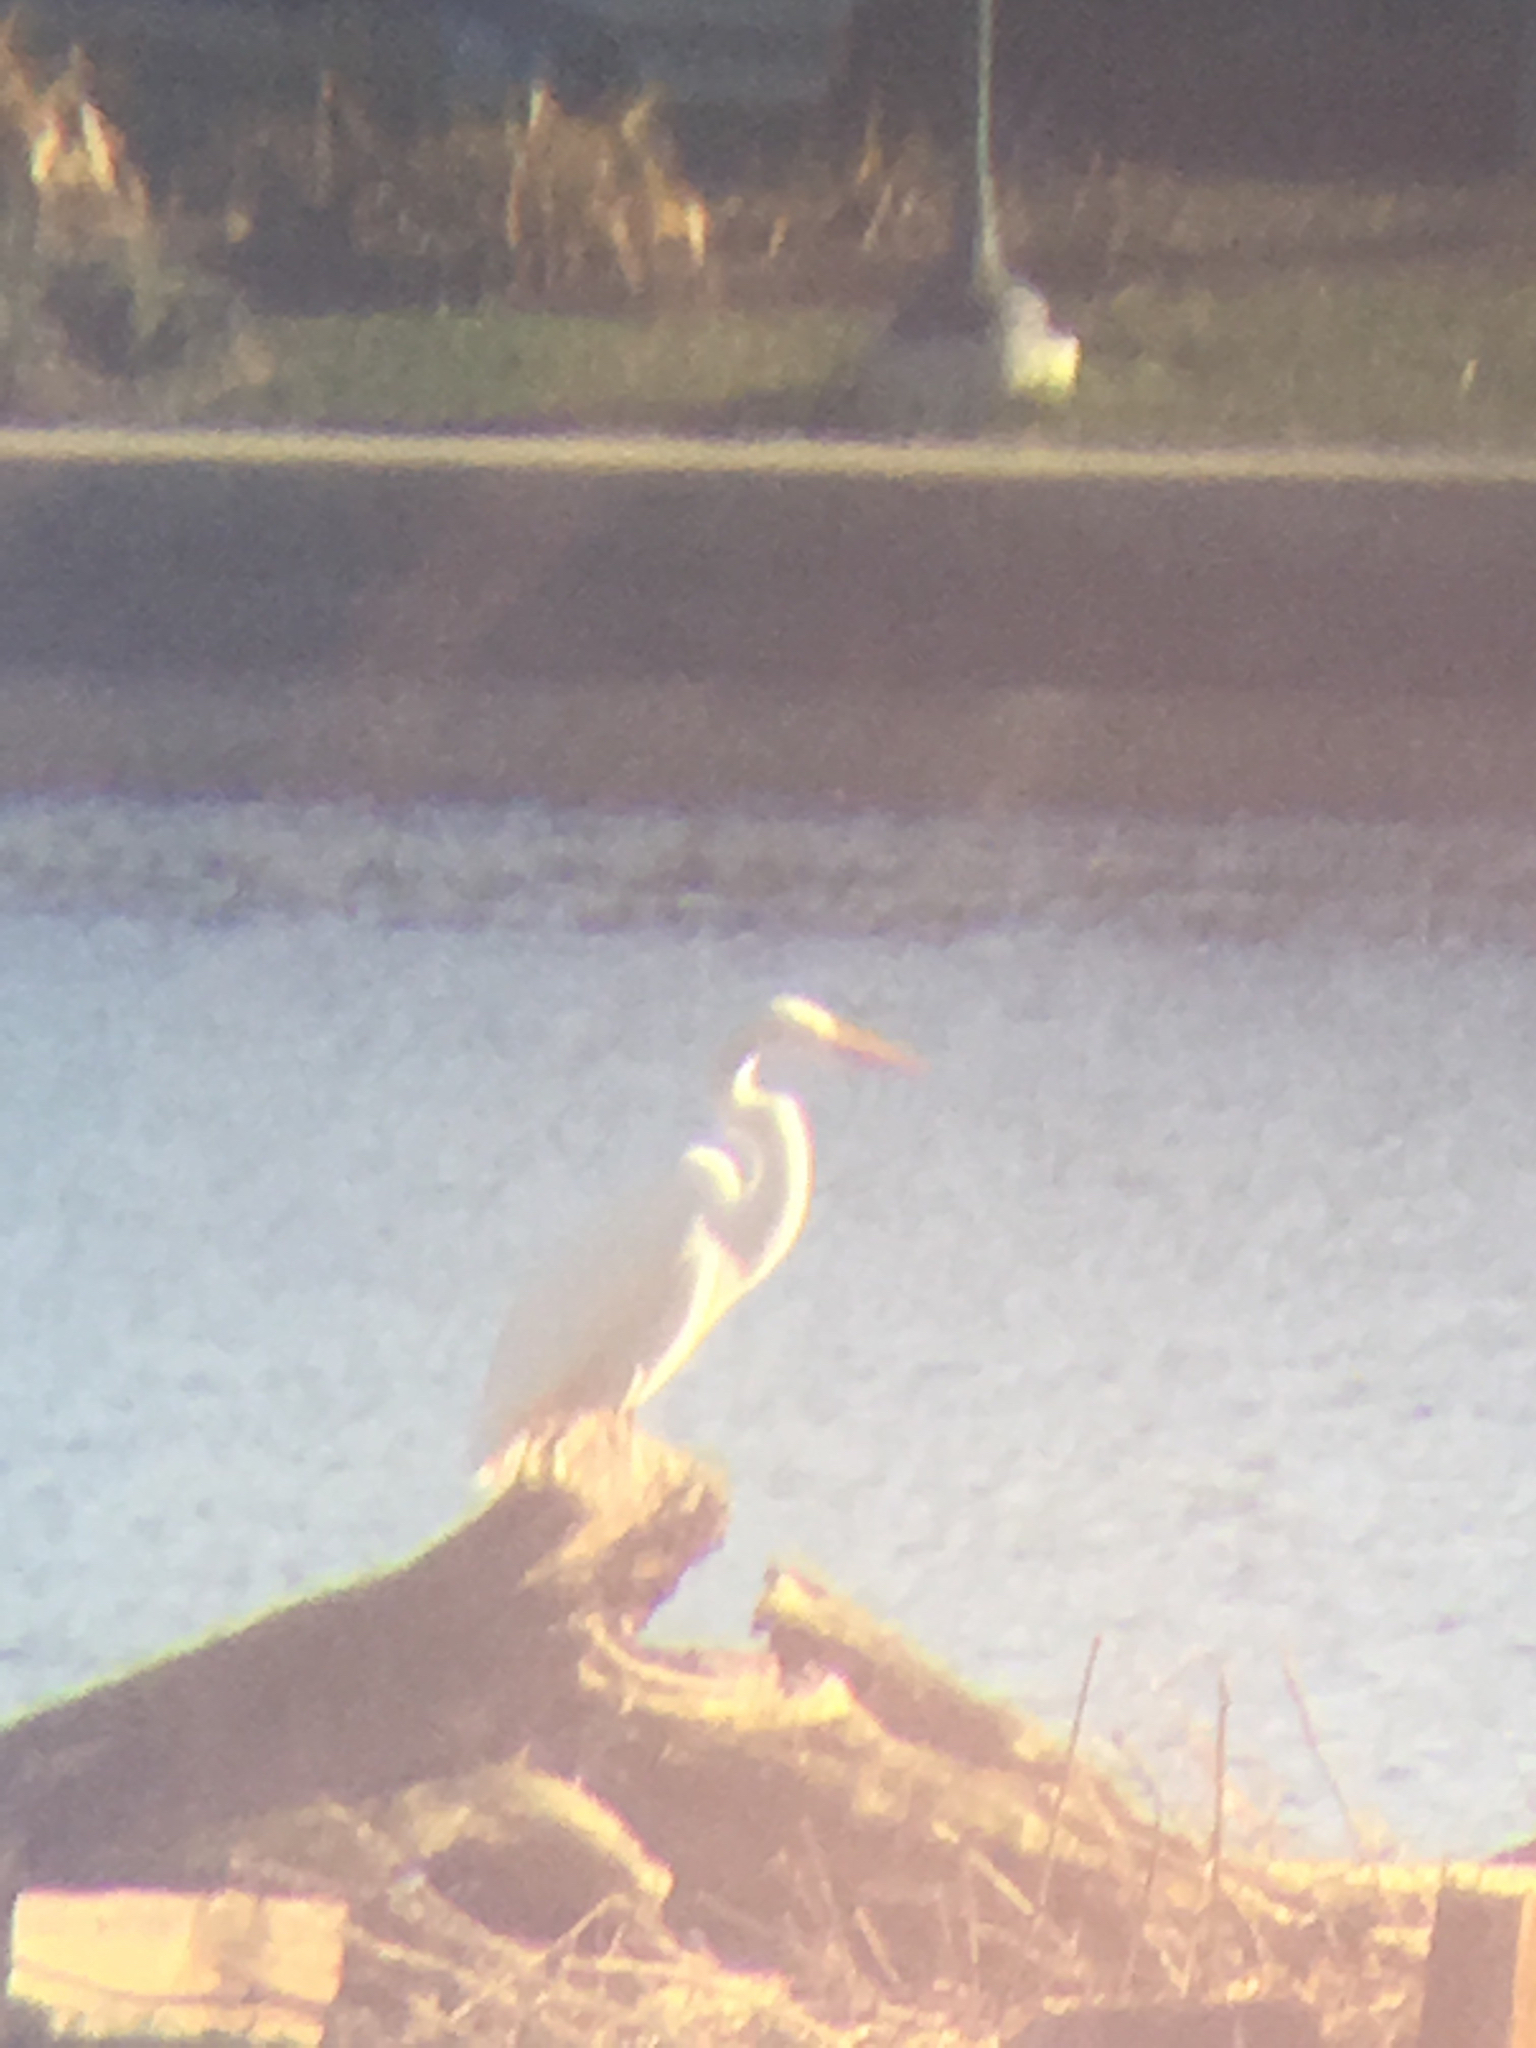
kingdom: Animalia
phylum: Chordata
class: Aves
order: Pelecaniformes
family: Ardeidae
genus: Ardea
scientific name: Ardea alba
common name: Great egret
